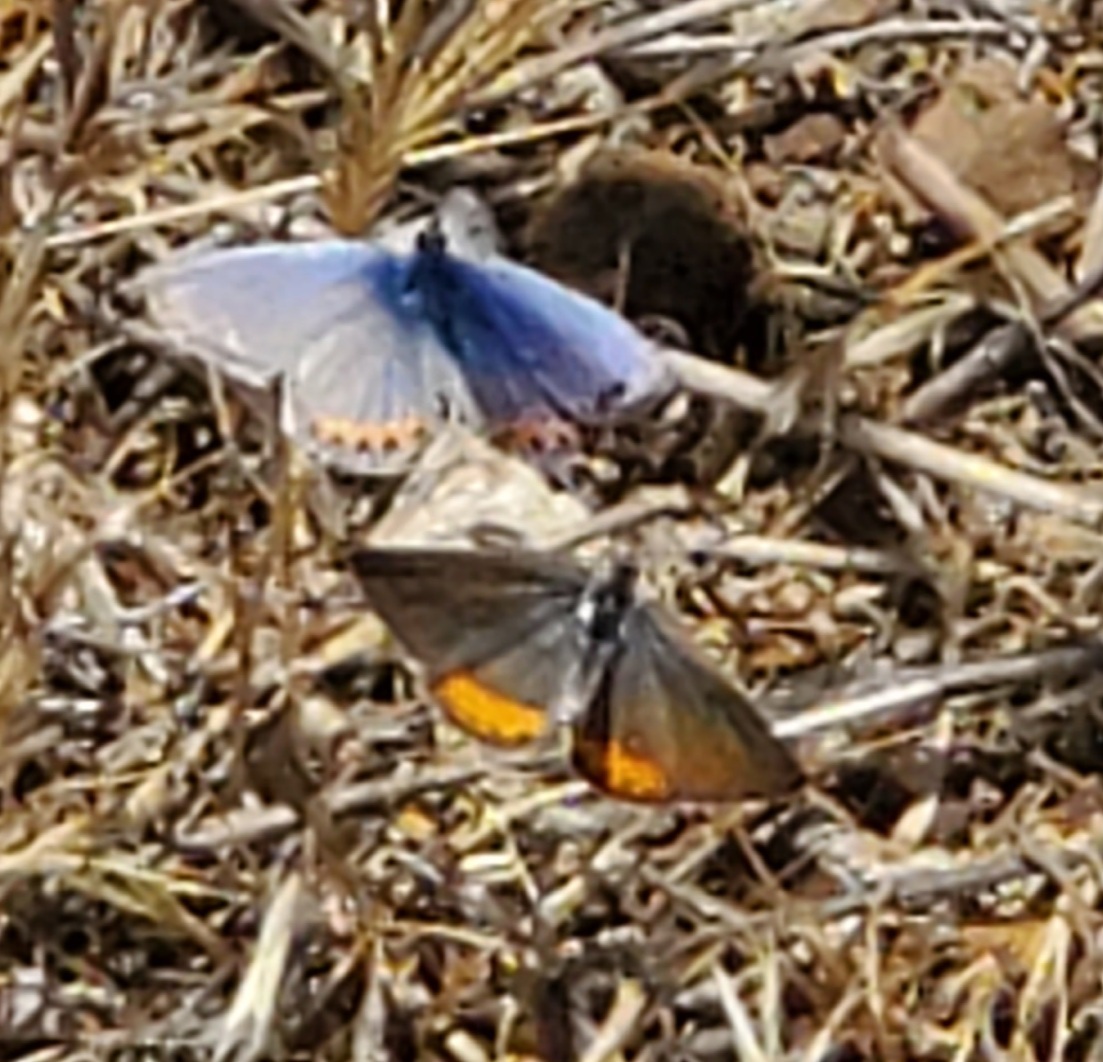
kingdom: Animalia
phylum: Arthropoda
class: Insecta
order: Lepidoptera
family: Lycaenidae
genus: Icaricia
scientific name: Icaricia acmon
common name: Acmon blue
